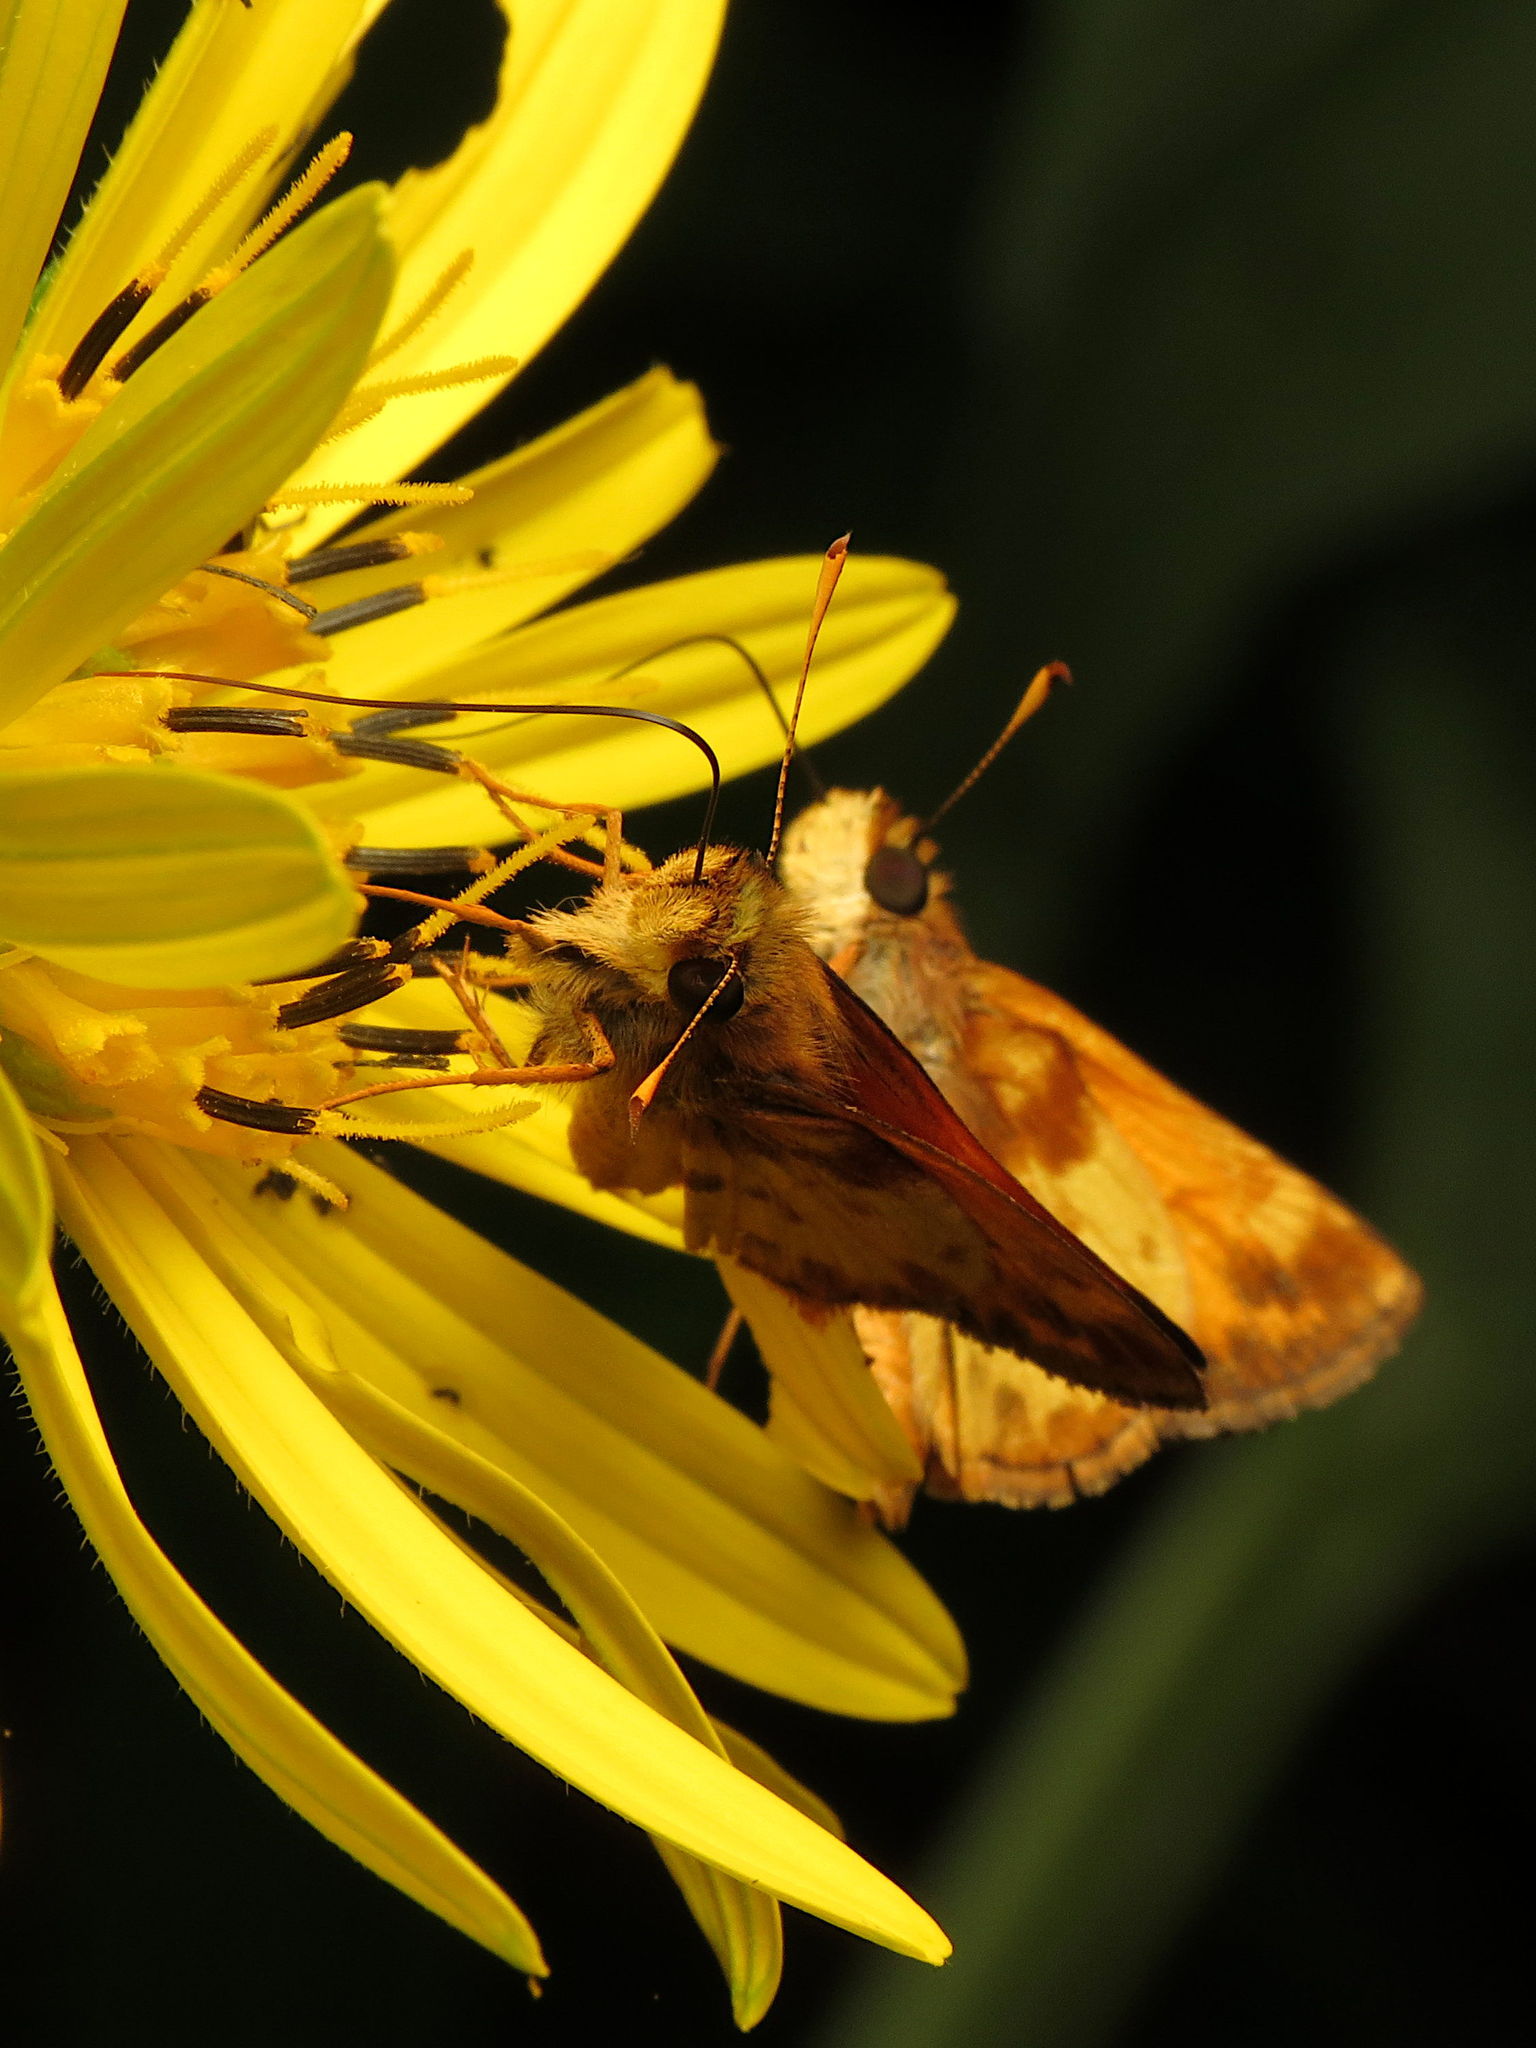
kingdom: Animalia
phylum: Arthropoda
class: Insecta
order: Lepidoptera
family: Hesperiidae
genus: Lon
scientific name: Lon zabulon
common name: Zabulon skipper
